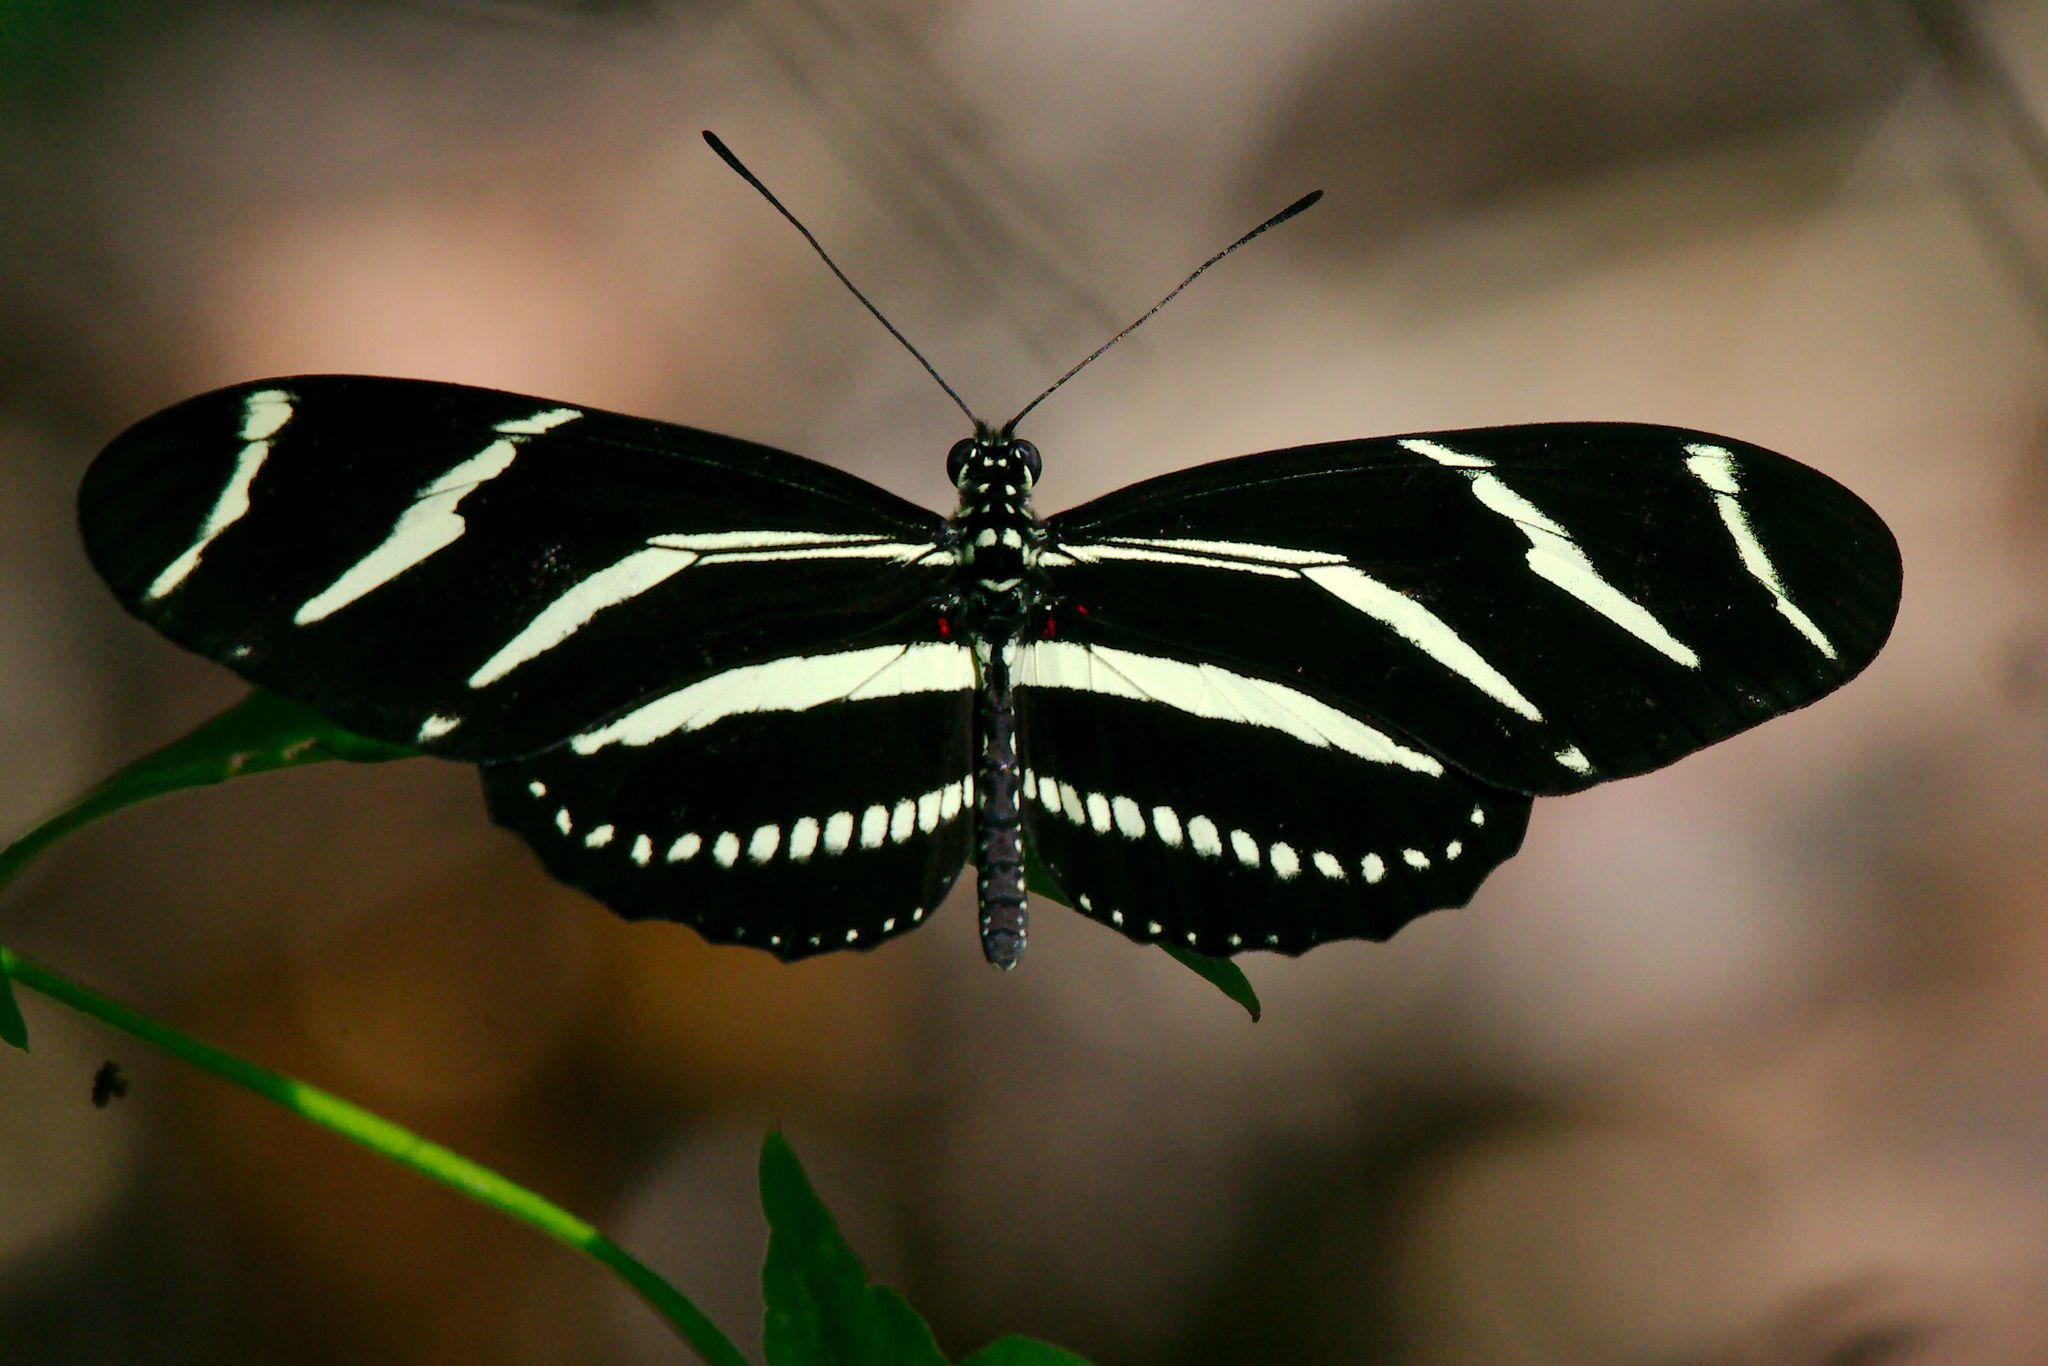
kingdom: Animalia
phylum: Arthropoda
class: Insecta
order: Lepidoptera
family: Nymphalidae
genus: Heliconius
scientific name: Heliconius charithonia
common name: Zebra long wing
